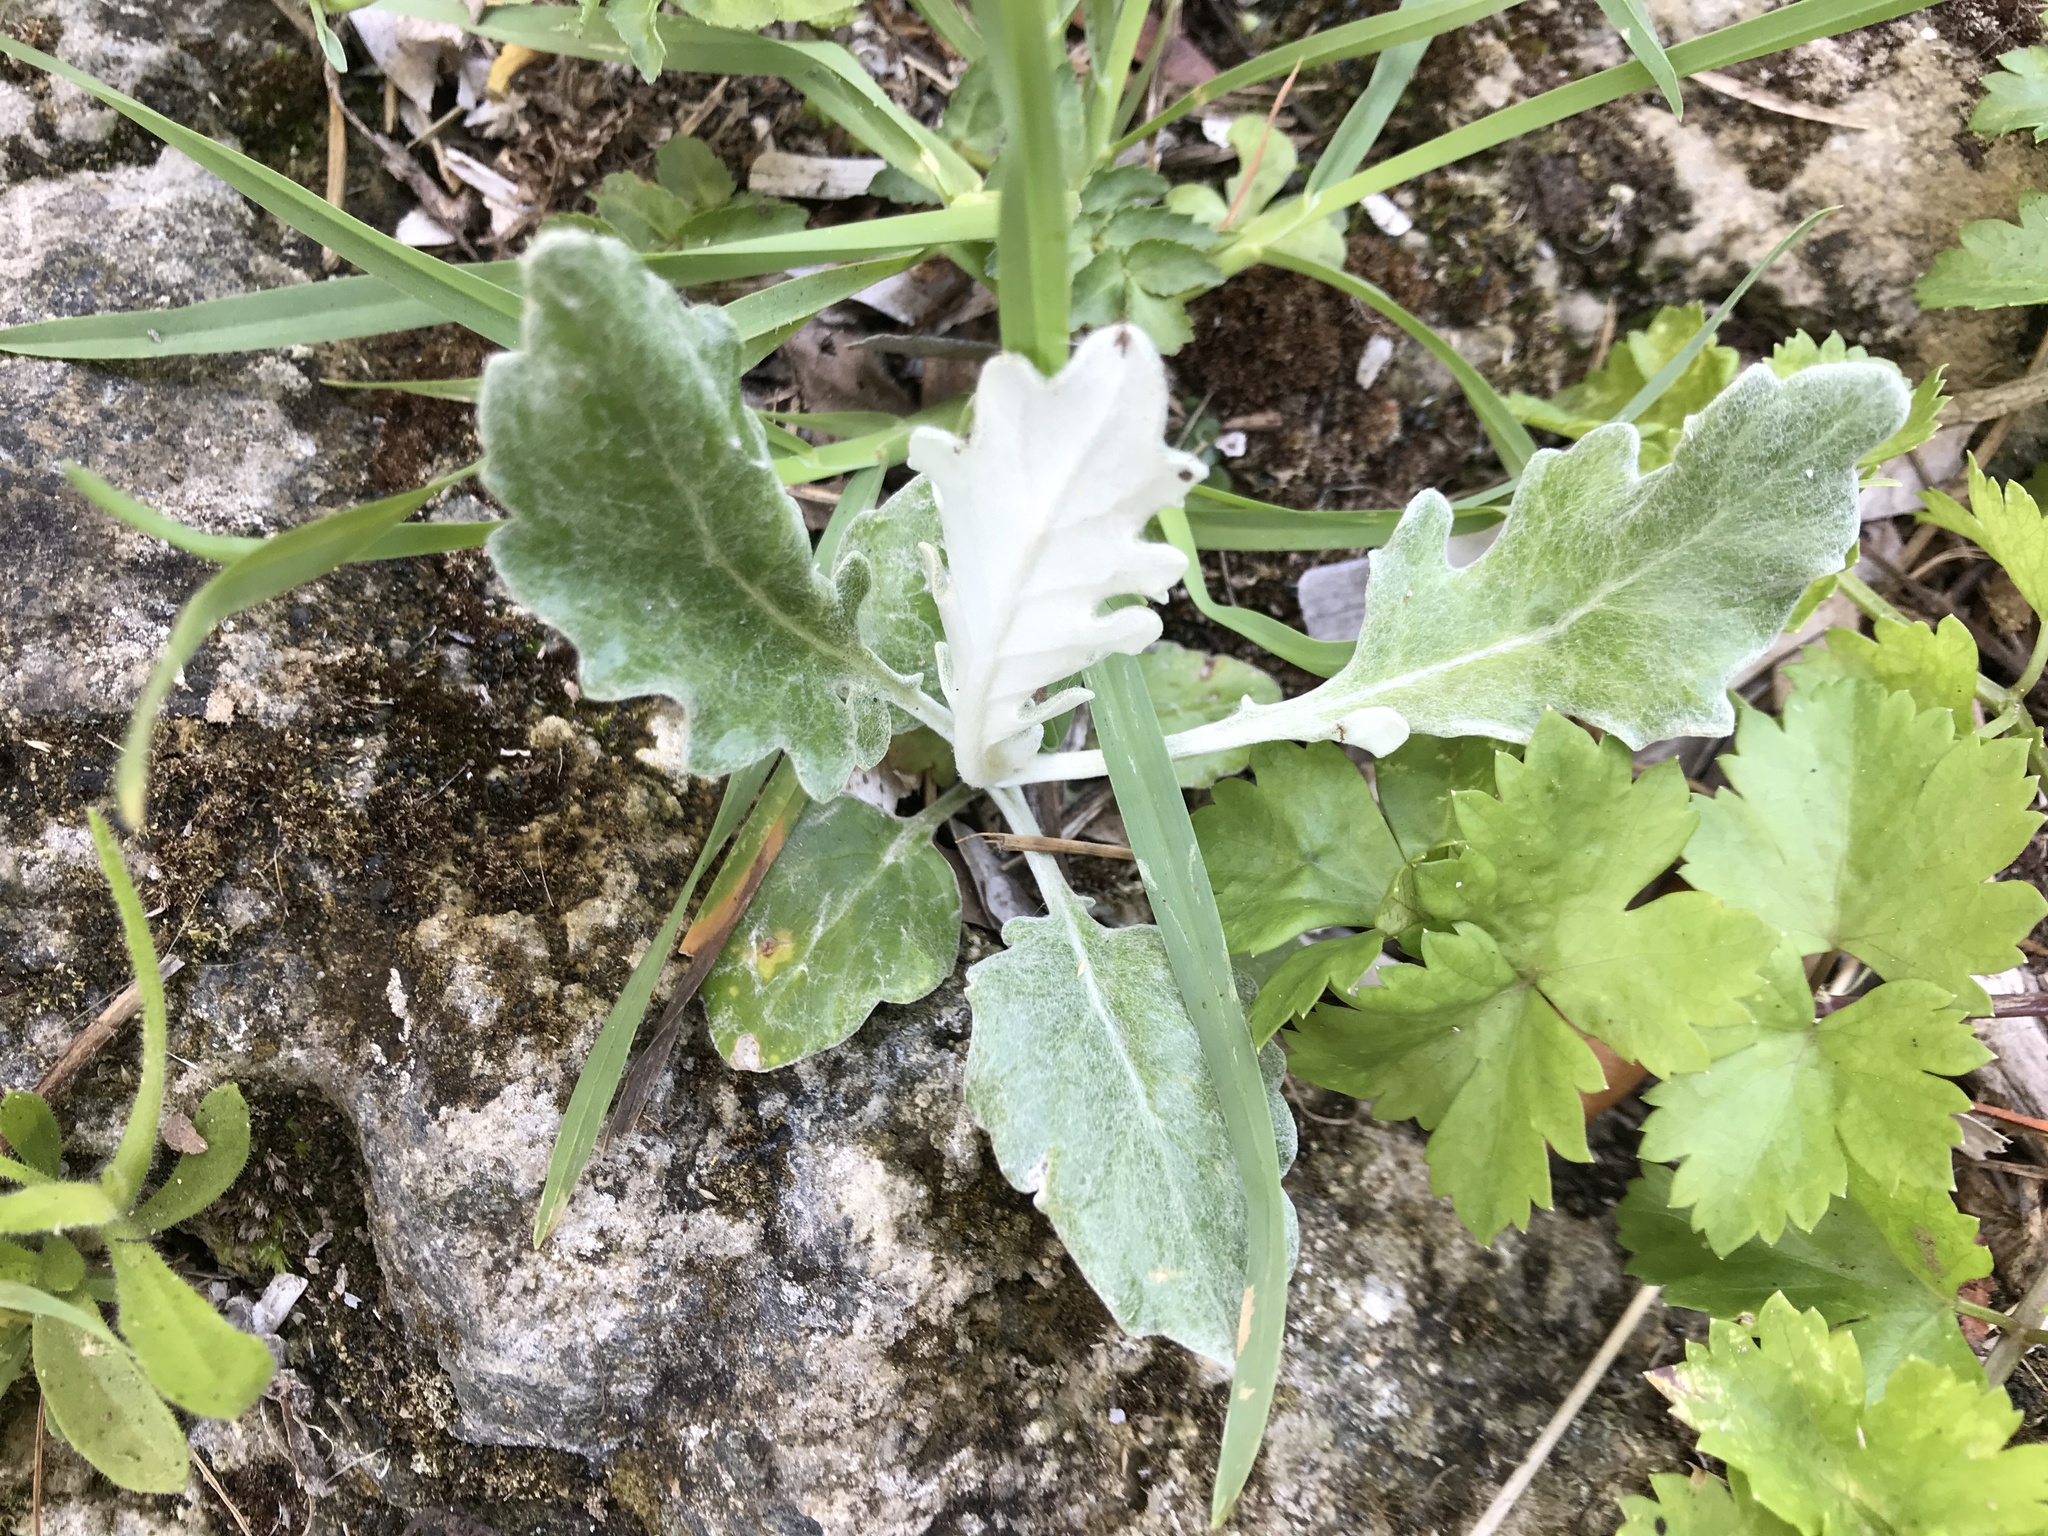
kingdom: Plantae
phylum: Tracheophyta
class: Magnoliopsida
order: Asterales
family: Asteraceae
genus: Jacobaea
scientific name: Jacobaea maritima
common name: Silver ragwort
